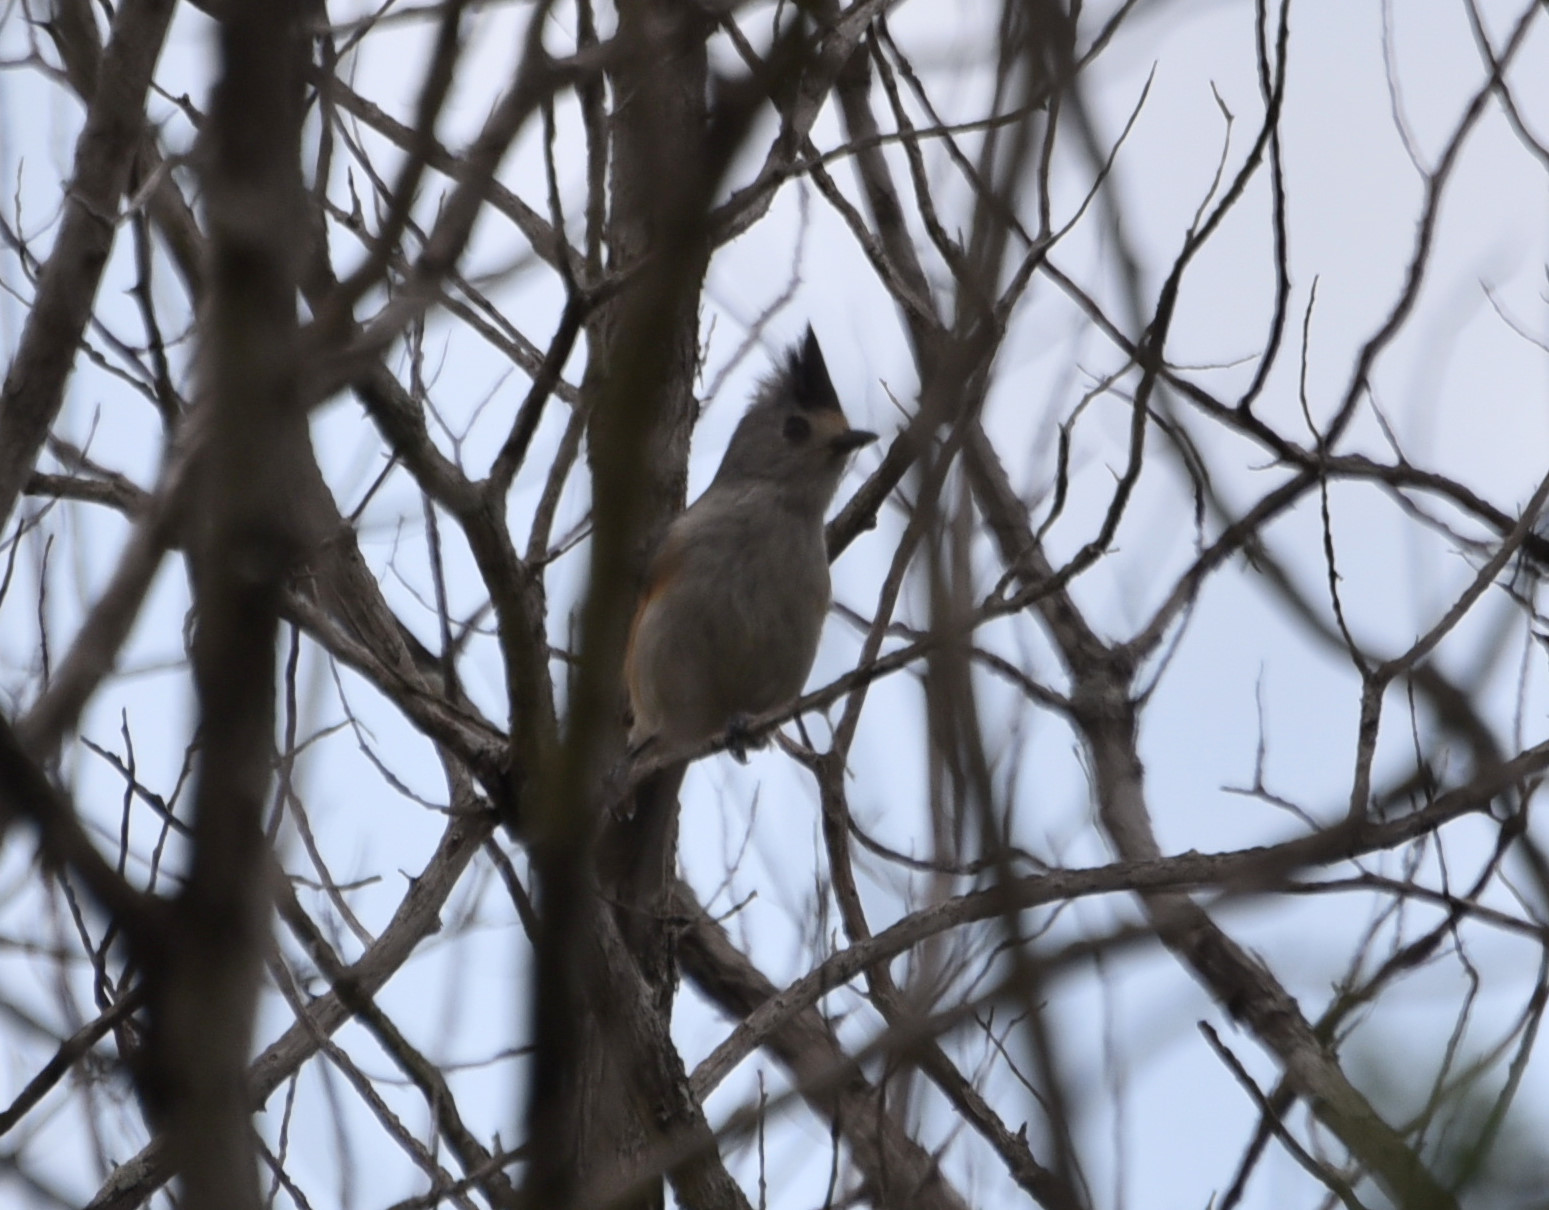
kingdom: Animalia
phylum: Chordata
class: Aves
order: Passeriformes
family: Paridae
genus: Baeolophus
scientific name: Baeolophus atricristatus
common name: Black-crested titmouse
